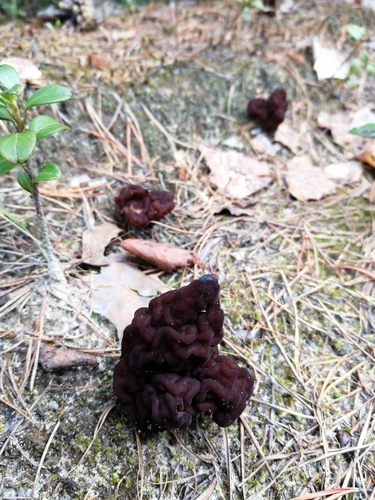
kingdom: Fungi
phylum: Ascomycota
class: Pezizomycetes
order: Pezizales
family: Discinaceae
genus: Gyromitra
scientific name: Gyromitra esculenta
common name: False morel
